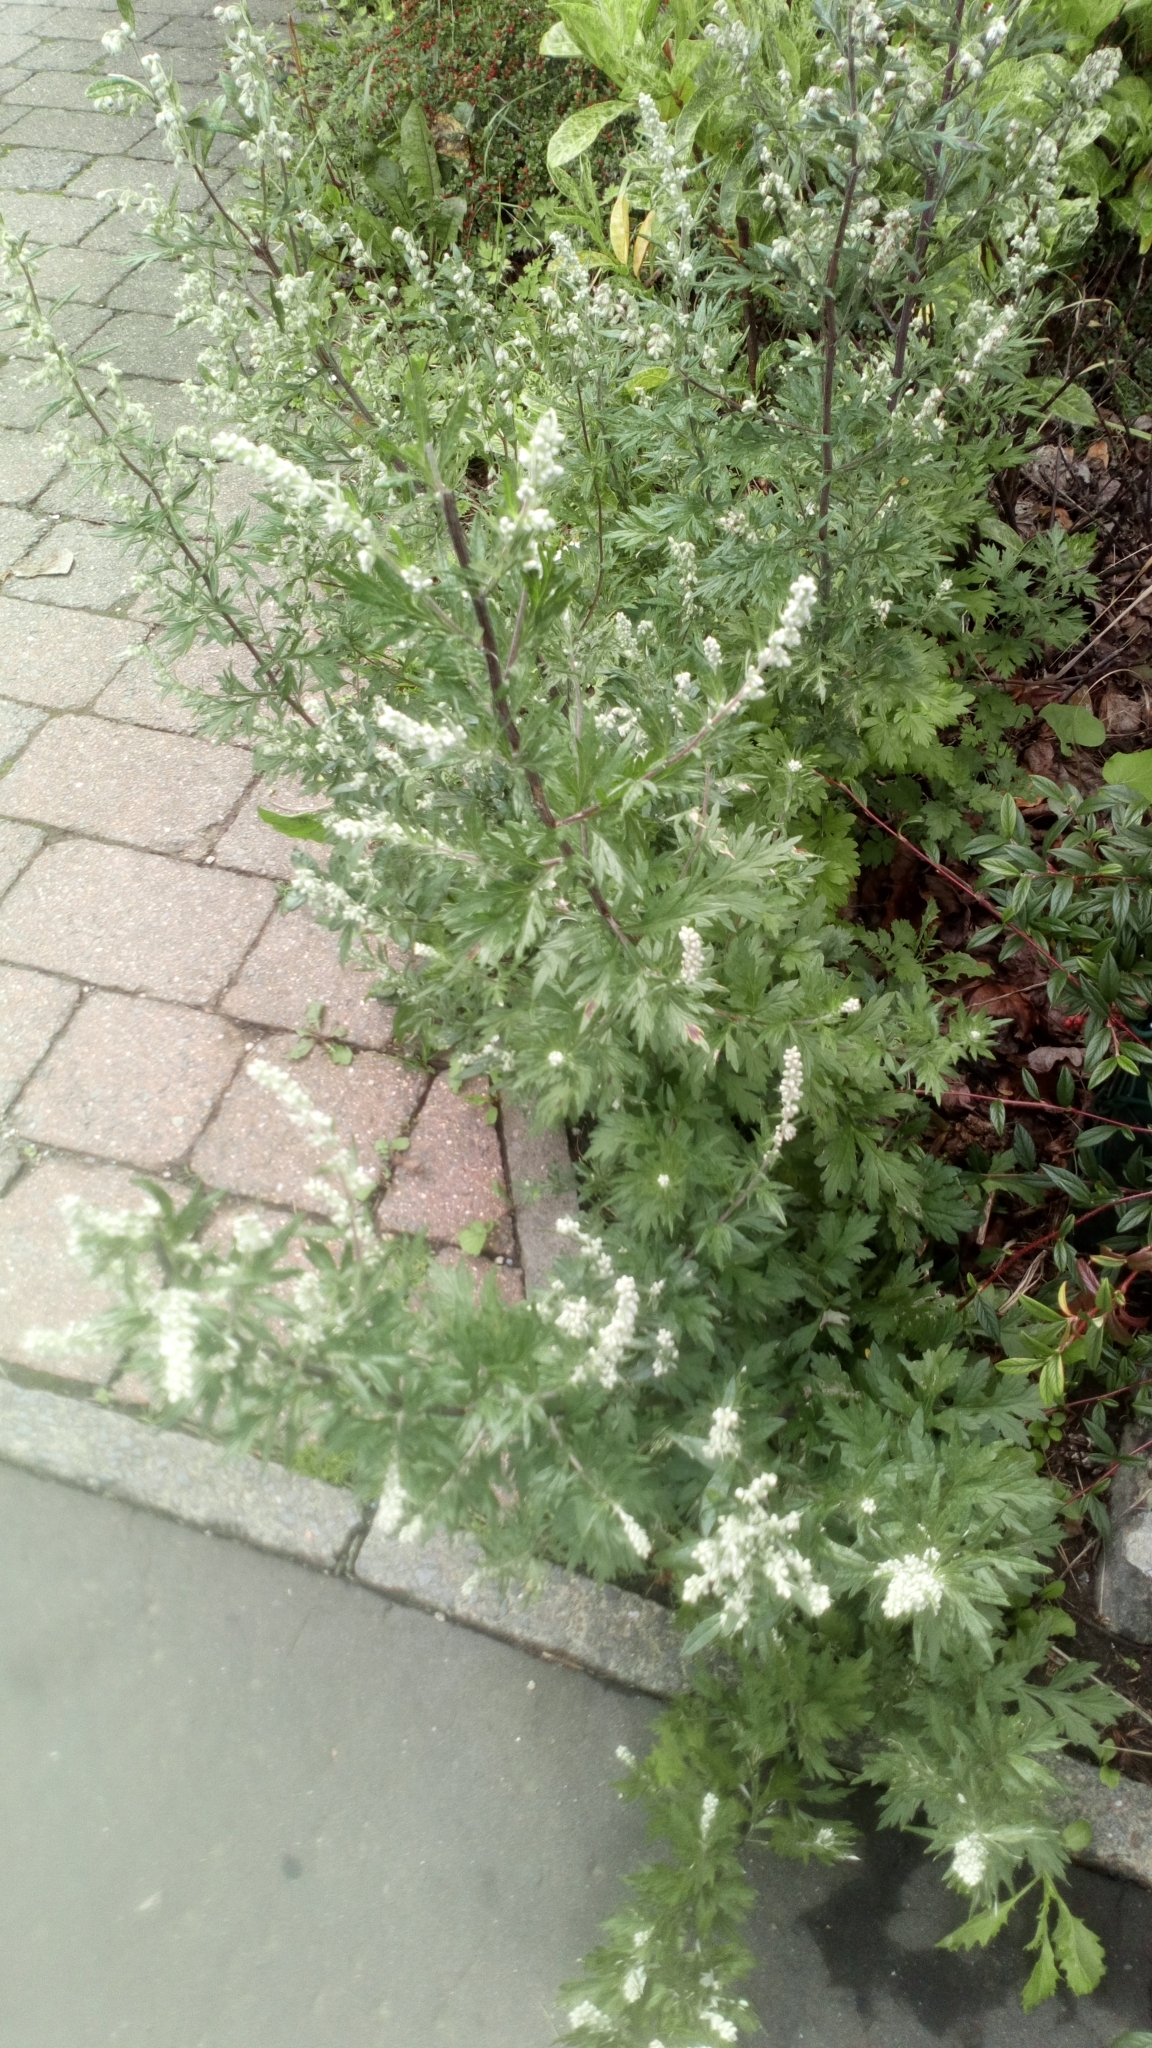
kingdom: Plantae
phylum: Tracheophyta
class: Magnoliopsida
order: Asterales
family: Asteraceae
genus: Artemisia
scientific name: Artemisia vulgaris
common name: Mugwort
